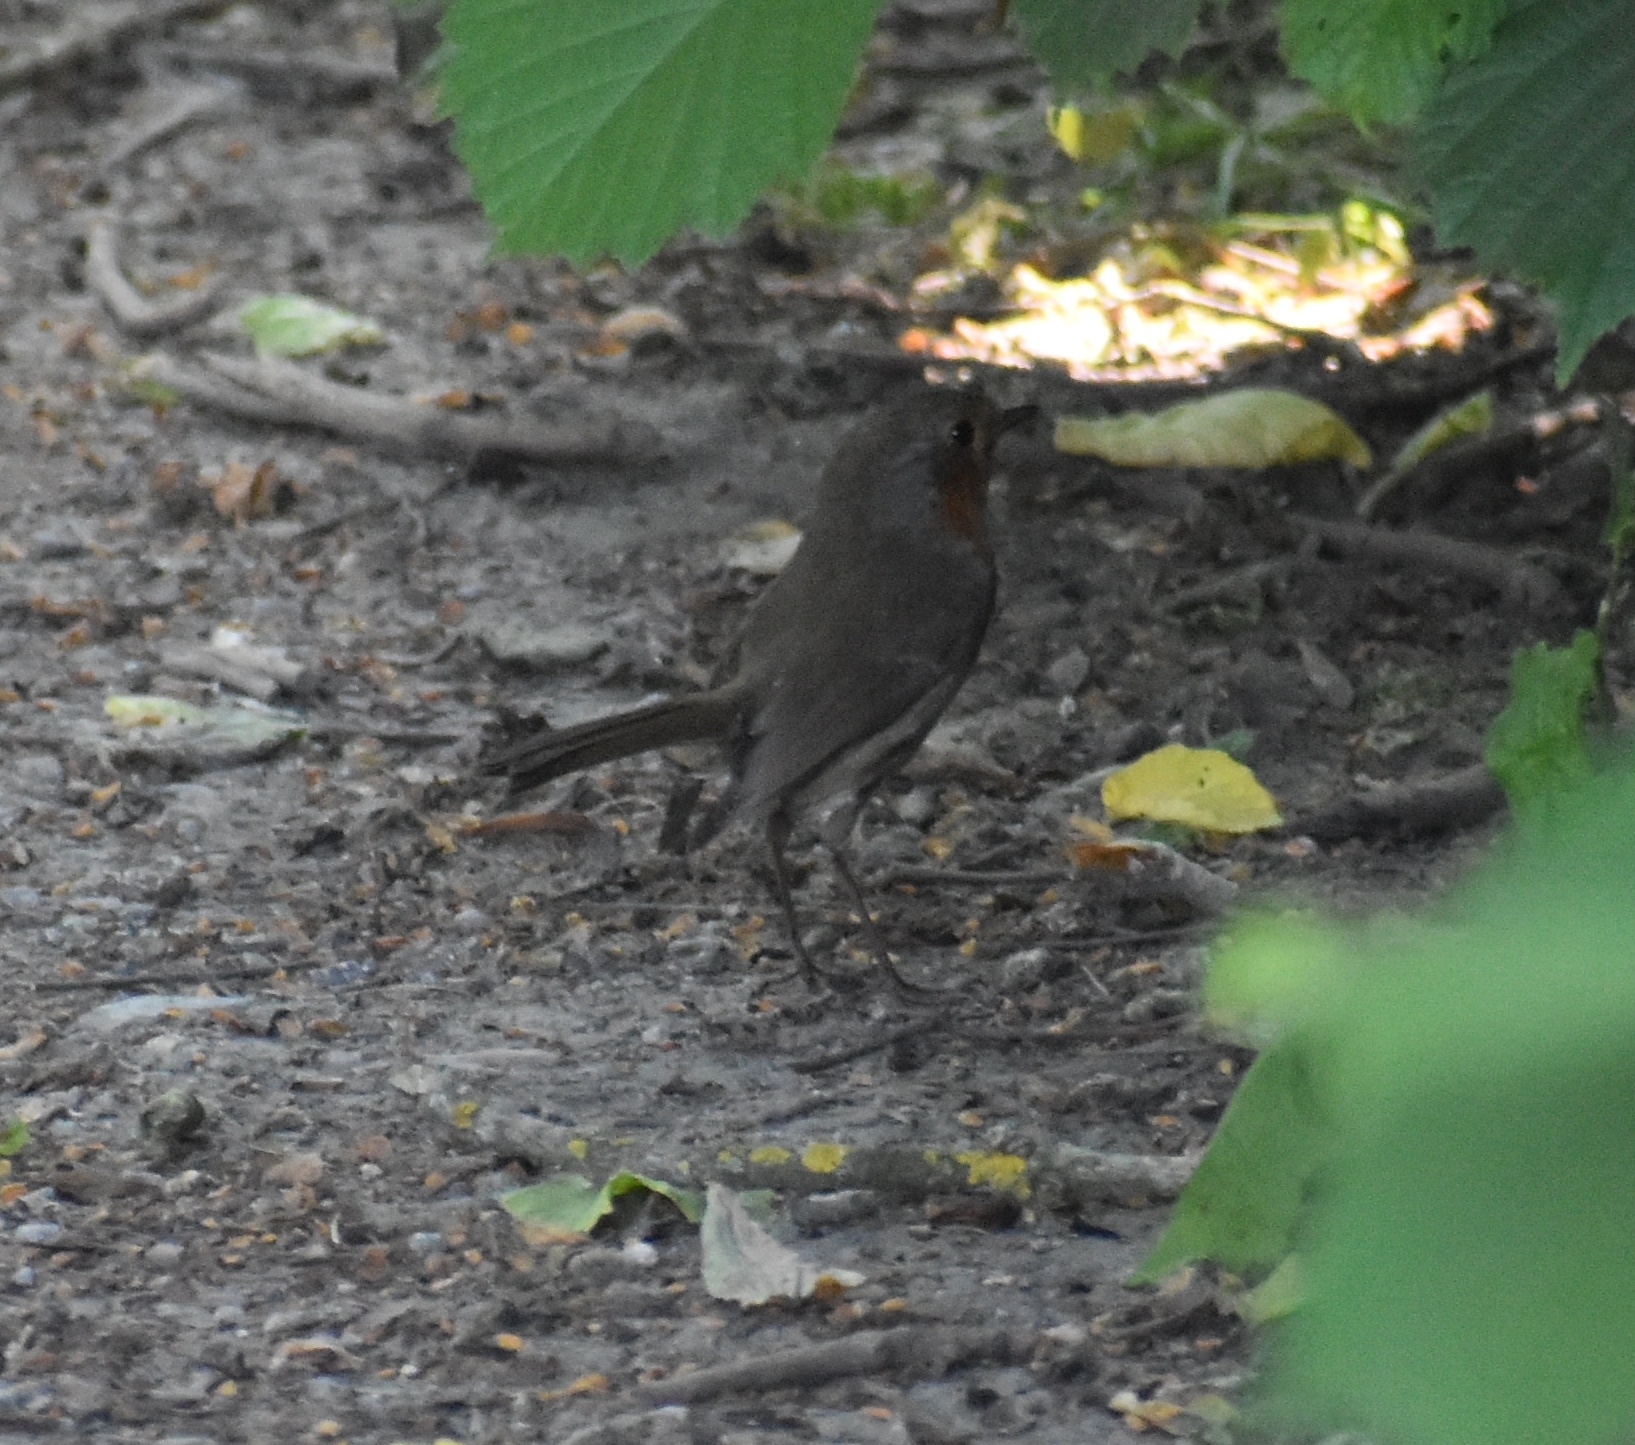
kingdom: Animalia
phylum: Chordata
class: Aves
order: Passeriformes
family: Muscicapidae
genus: Erithacus
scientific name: Erithacus rubecula
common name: European robin
